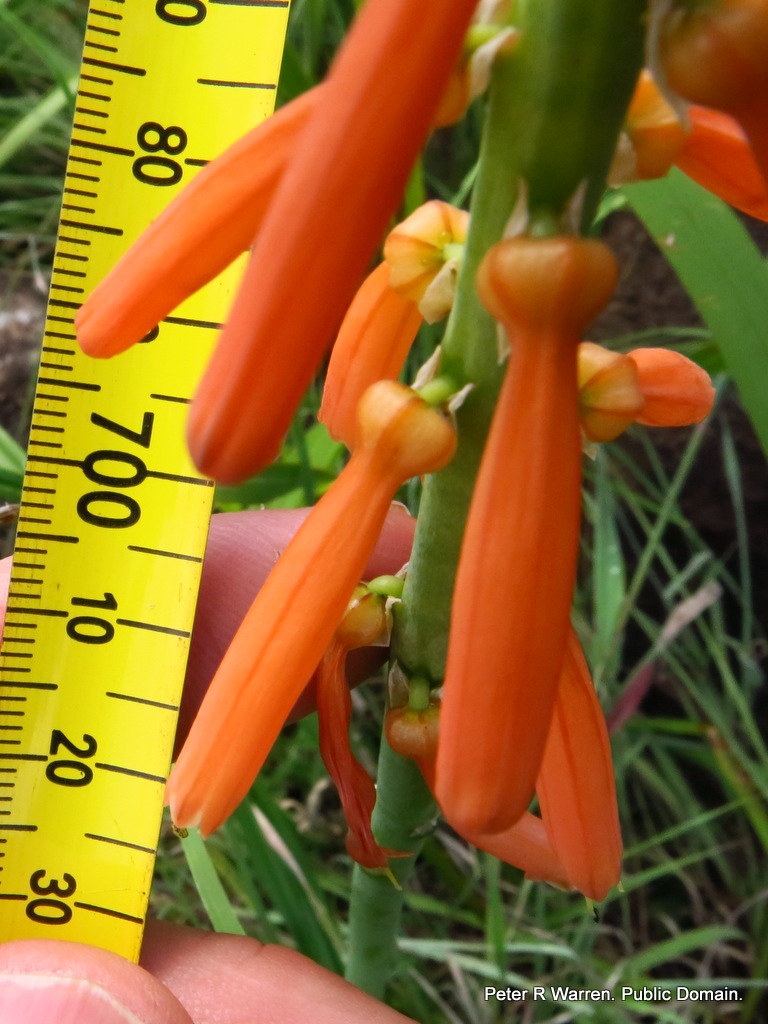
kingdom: Plantae
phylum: Tracheophyta
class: Liliopsida
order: Asparagales
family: Asphodelaceae
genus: Kniphofia
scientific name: Kniphofia laxiflora
